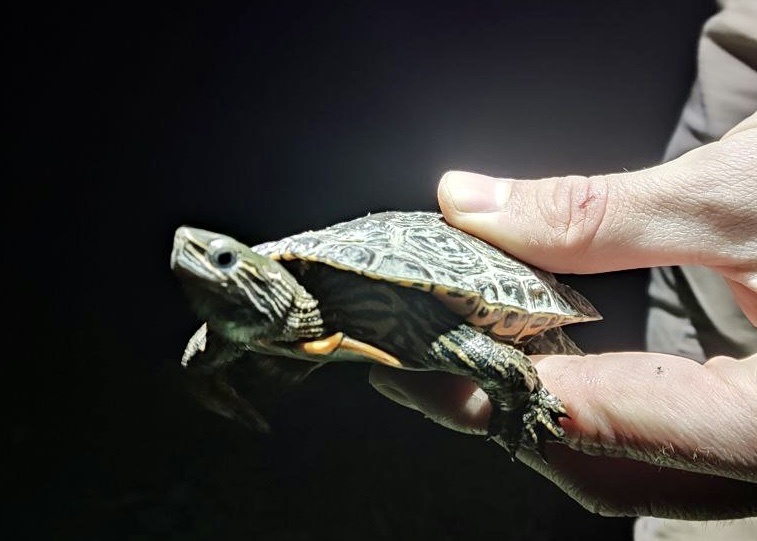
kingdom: Animalia
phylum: Chordata
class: Testudines
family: Geoemydidae
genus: Mauremys
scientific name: Mauremys caspica
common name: Caspian turtle
